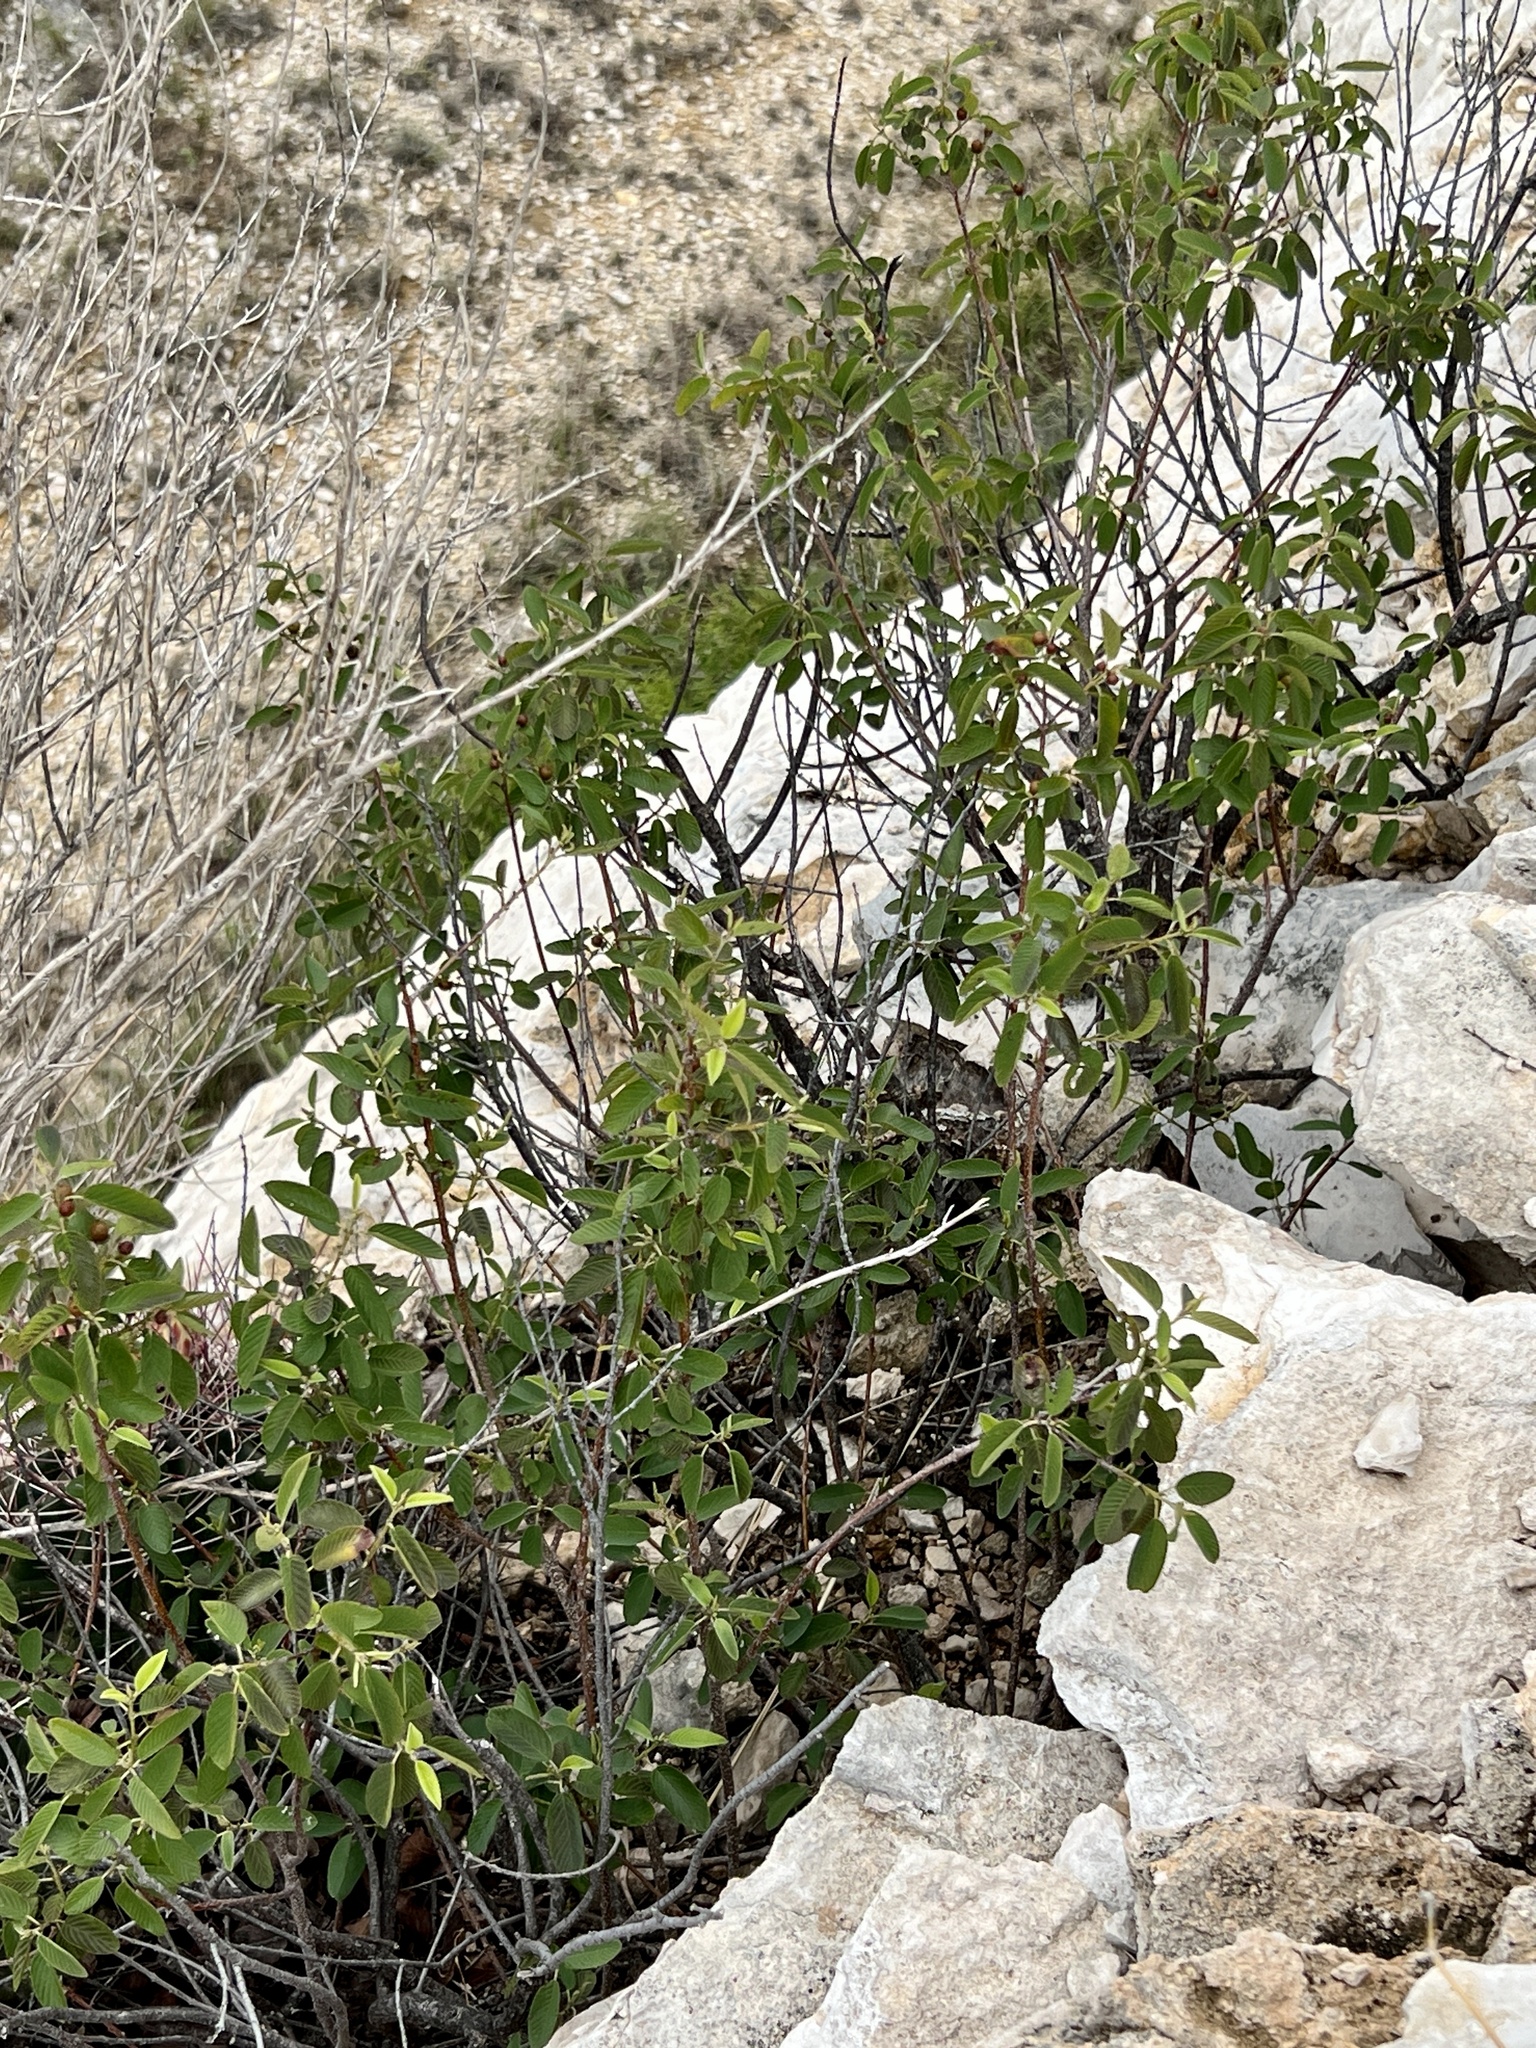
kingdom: Plantae
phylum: Tracheophyta
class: Magnoliopsida
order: Rosales
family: Rhamnaceae
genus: Karwinskia
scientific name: Karwinskia humboldtiana
